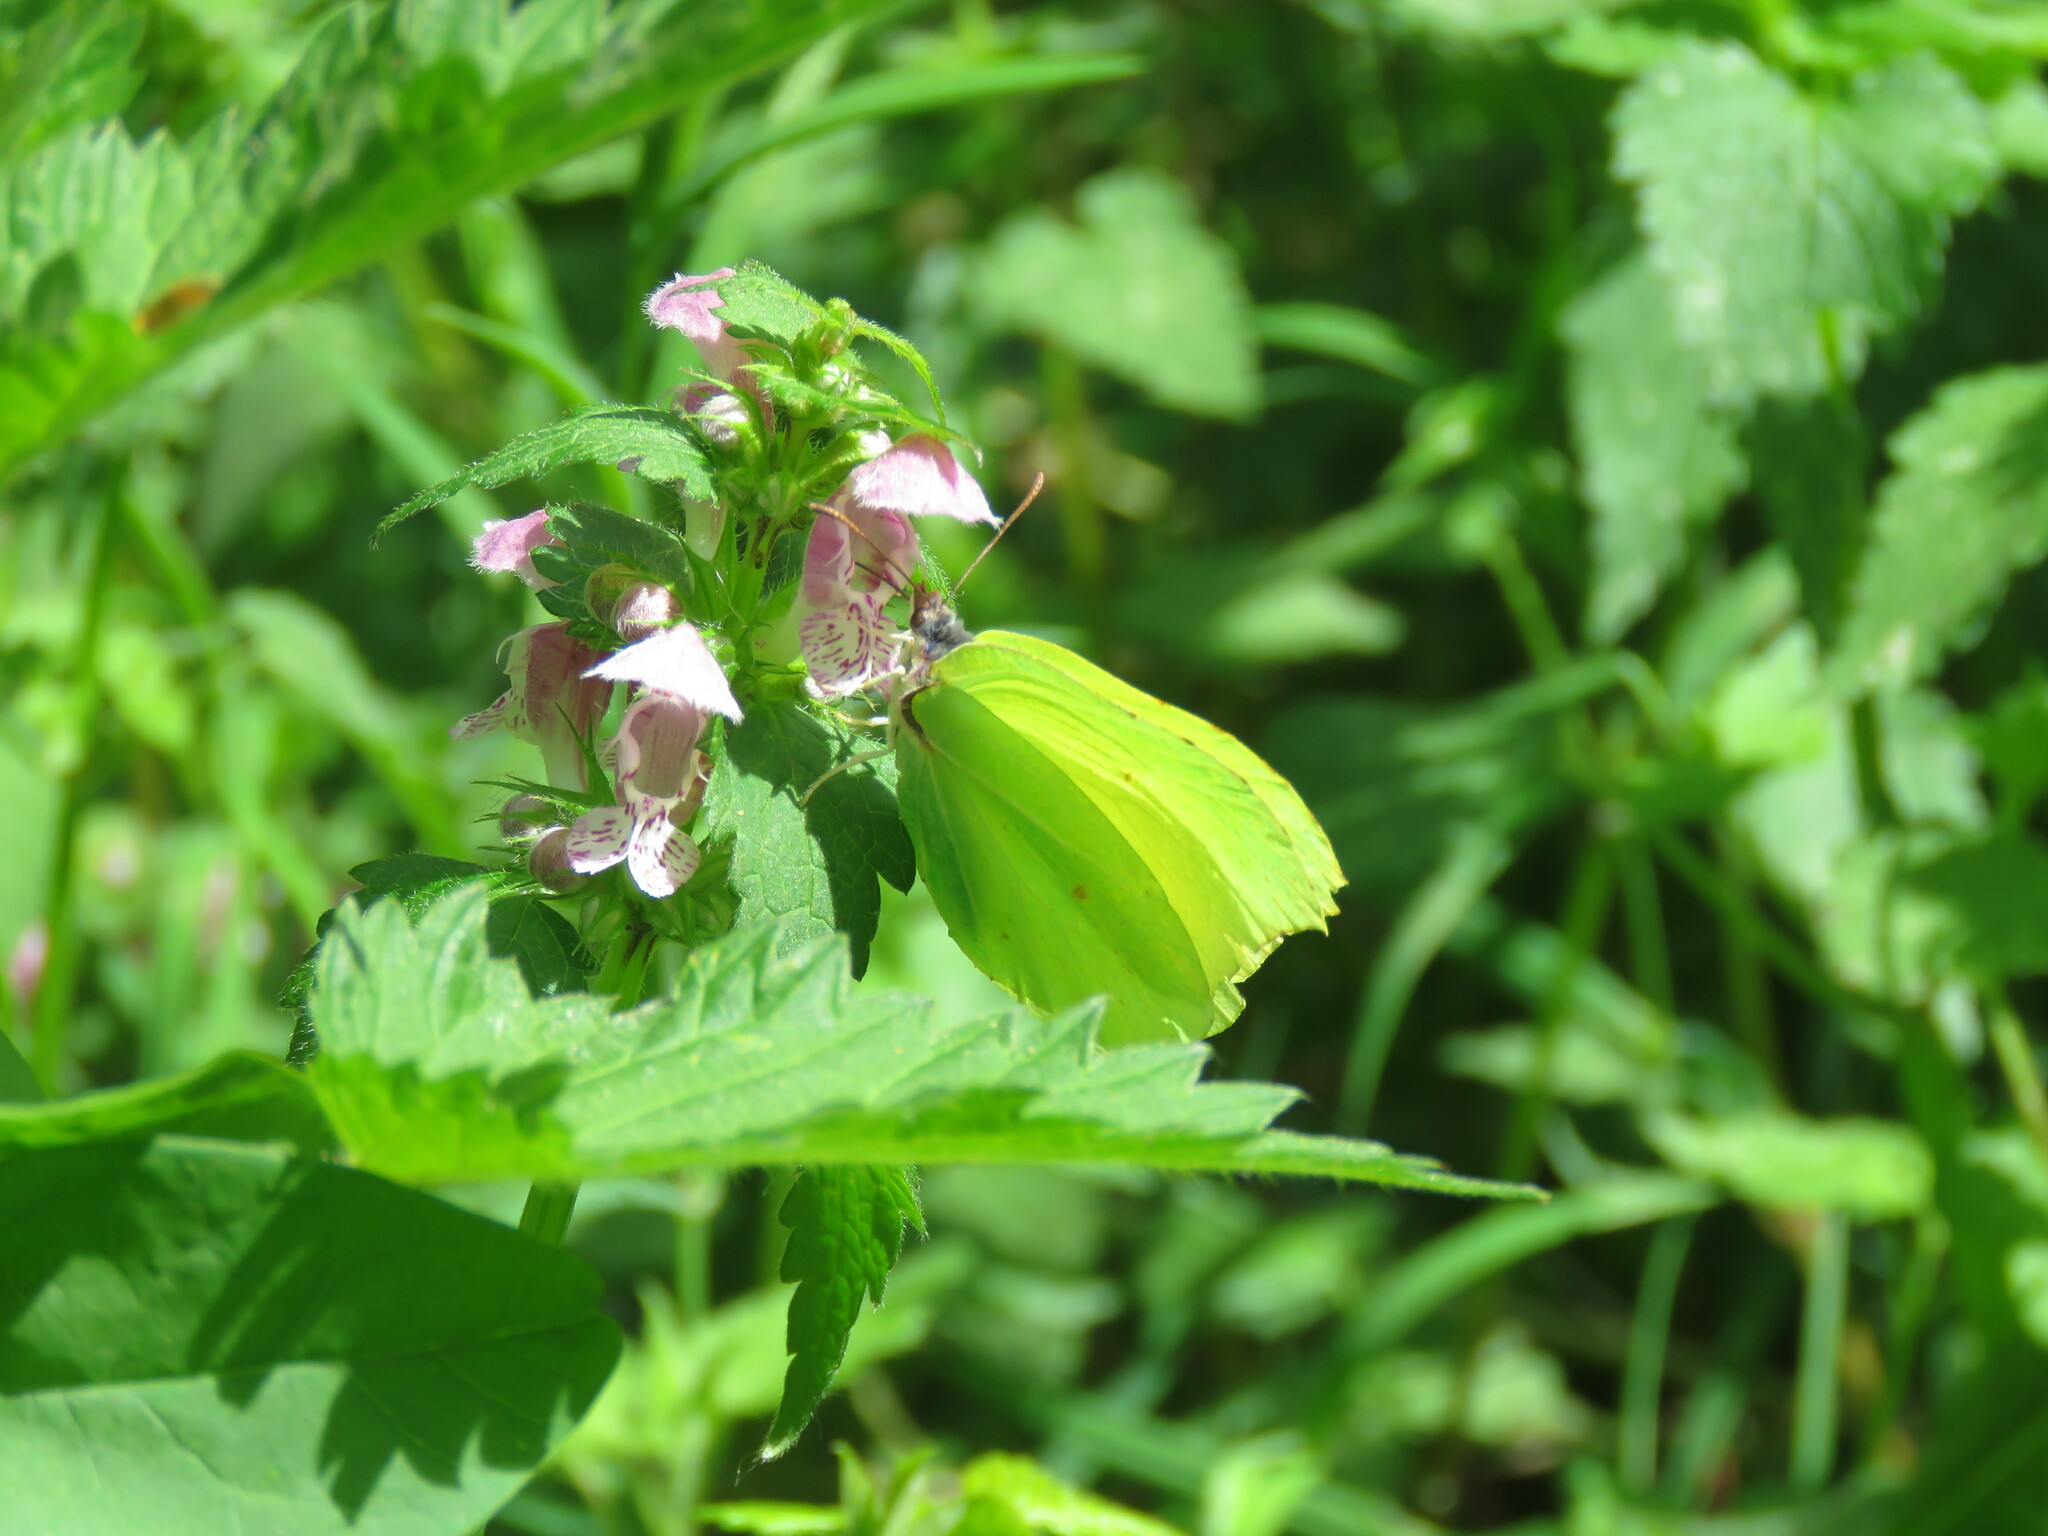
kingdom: Animalia
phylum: Arthropoda
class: Insecta
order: Lepidoptera
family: Pieridae
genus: Gonepteryx
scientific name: Gonepteryx rhamni
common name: Brimstone
